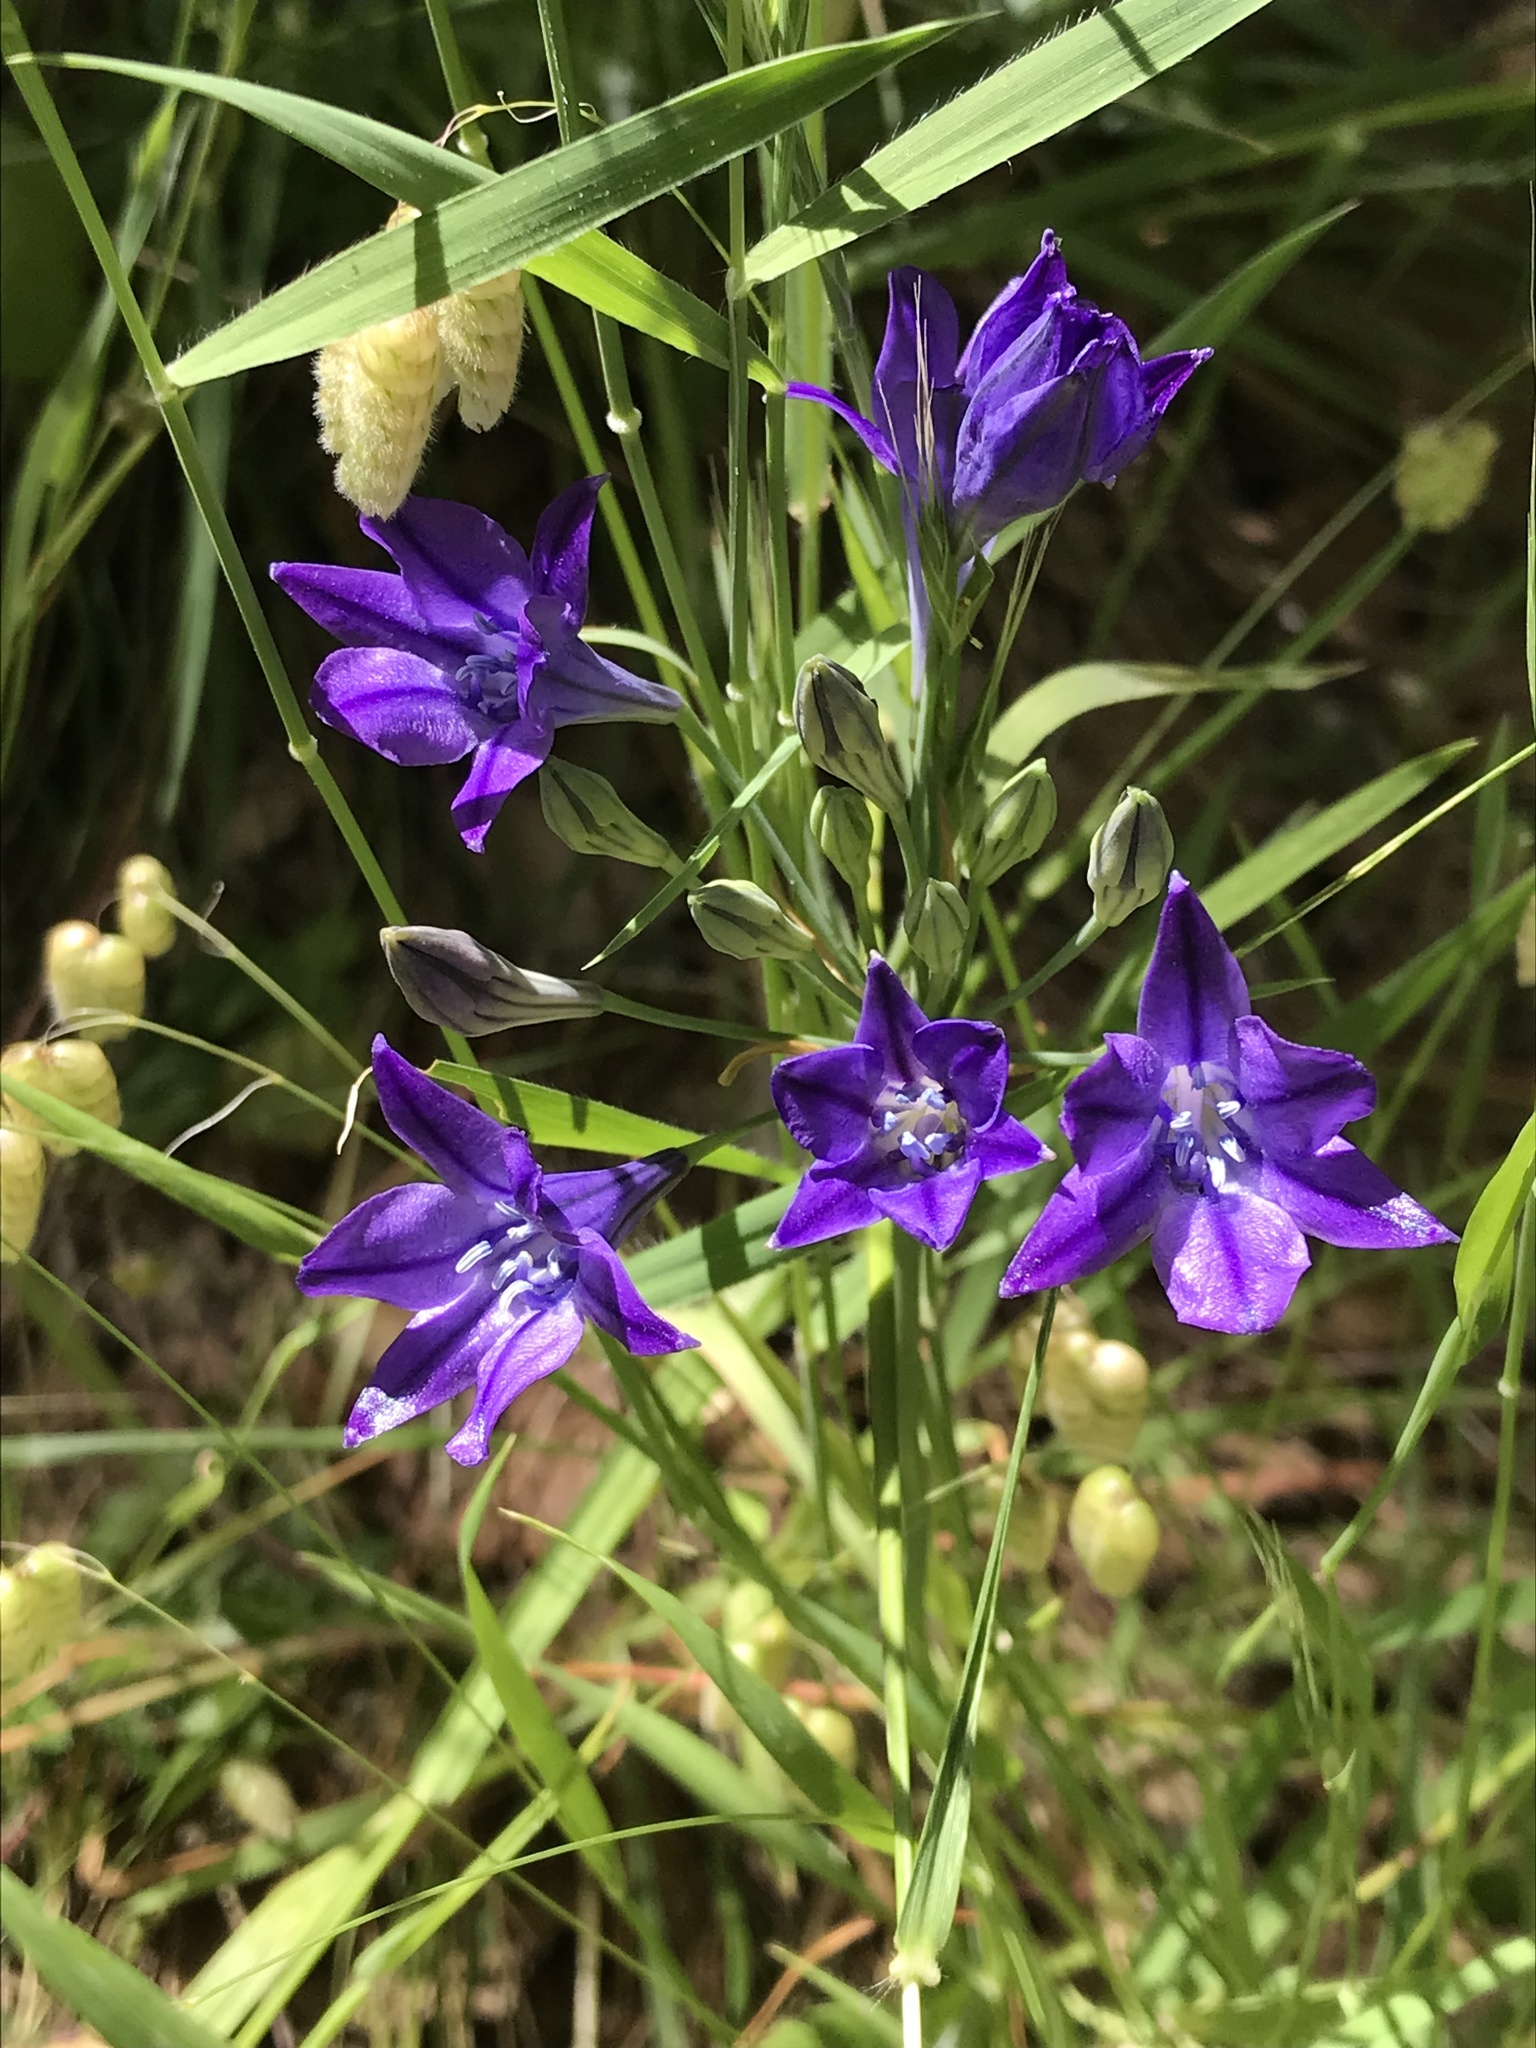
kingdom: Plantae
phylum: Tracheophyta
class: Liliopsida
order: Asparagales
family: Asparagaceae
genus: Triteleia
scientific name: Triteleia laxa
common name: Triplet-lily
